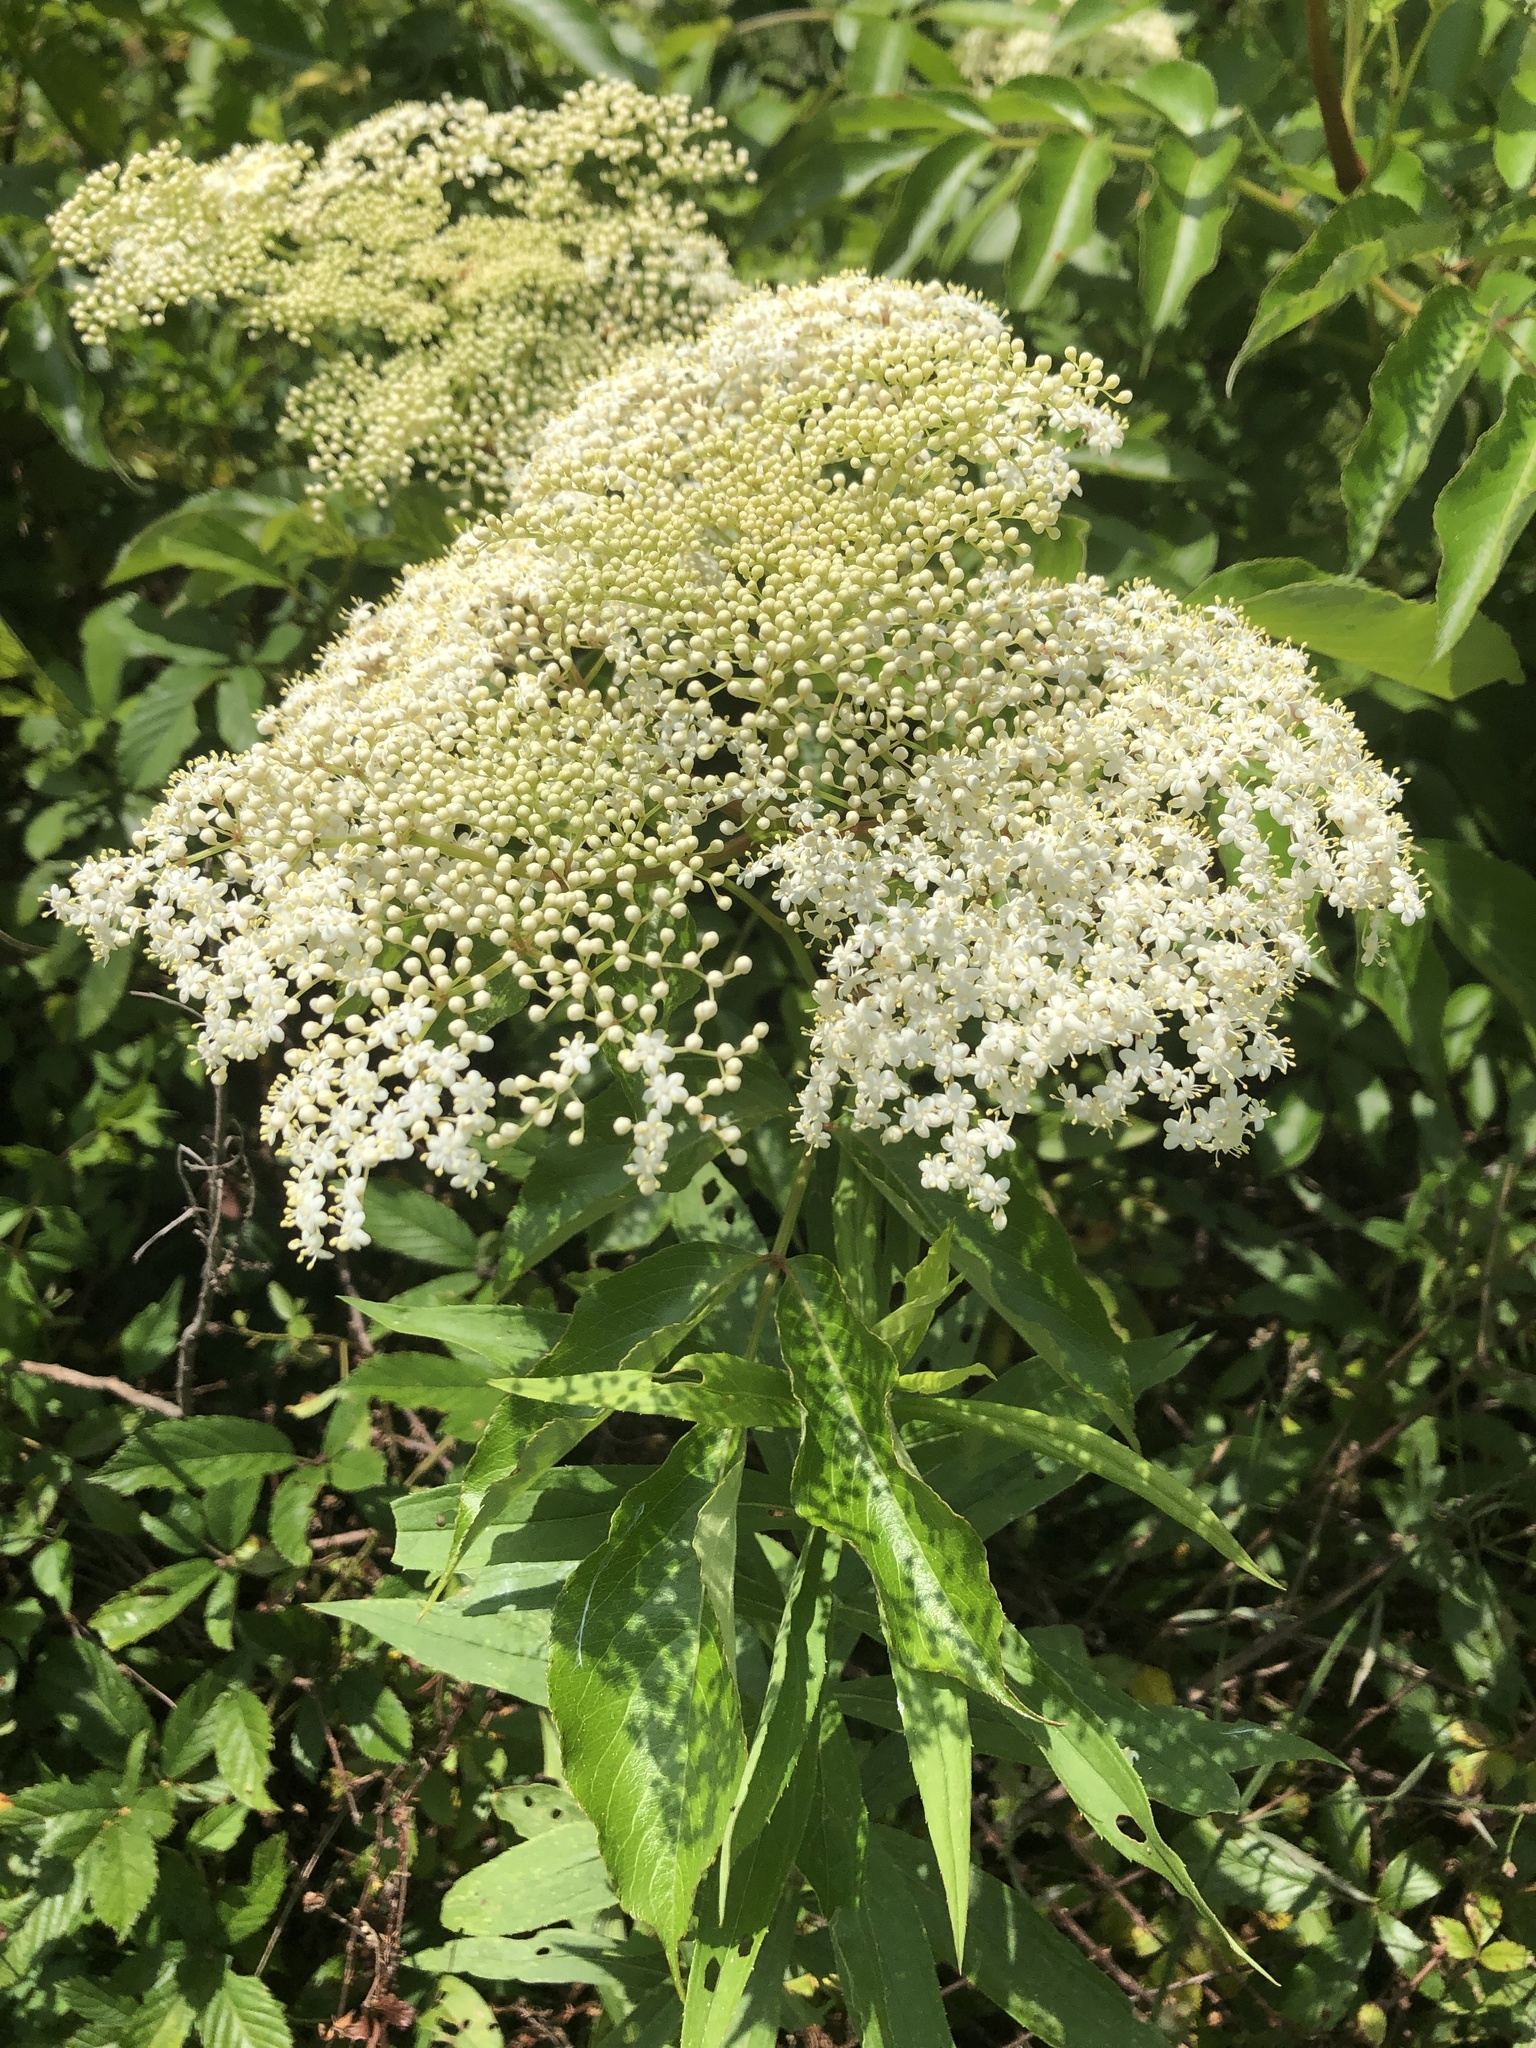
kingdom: Plantae
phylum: Tracheophyta
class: Magnoliopsida
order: Dipsacales
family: Viburnaceae
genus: Sambucus
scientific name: Sambucus canadensis
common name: American elder
